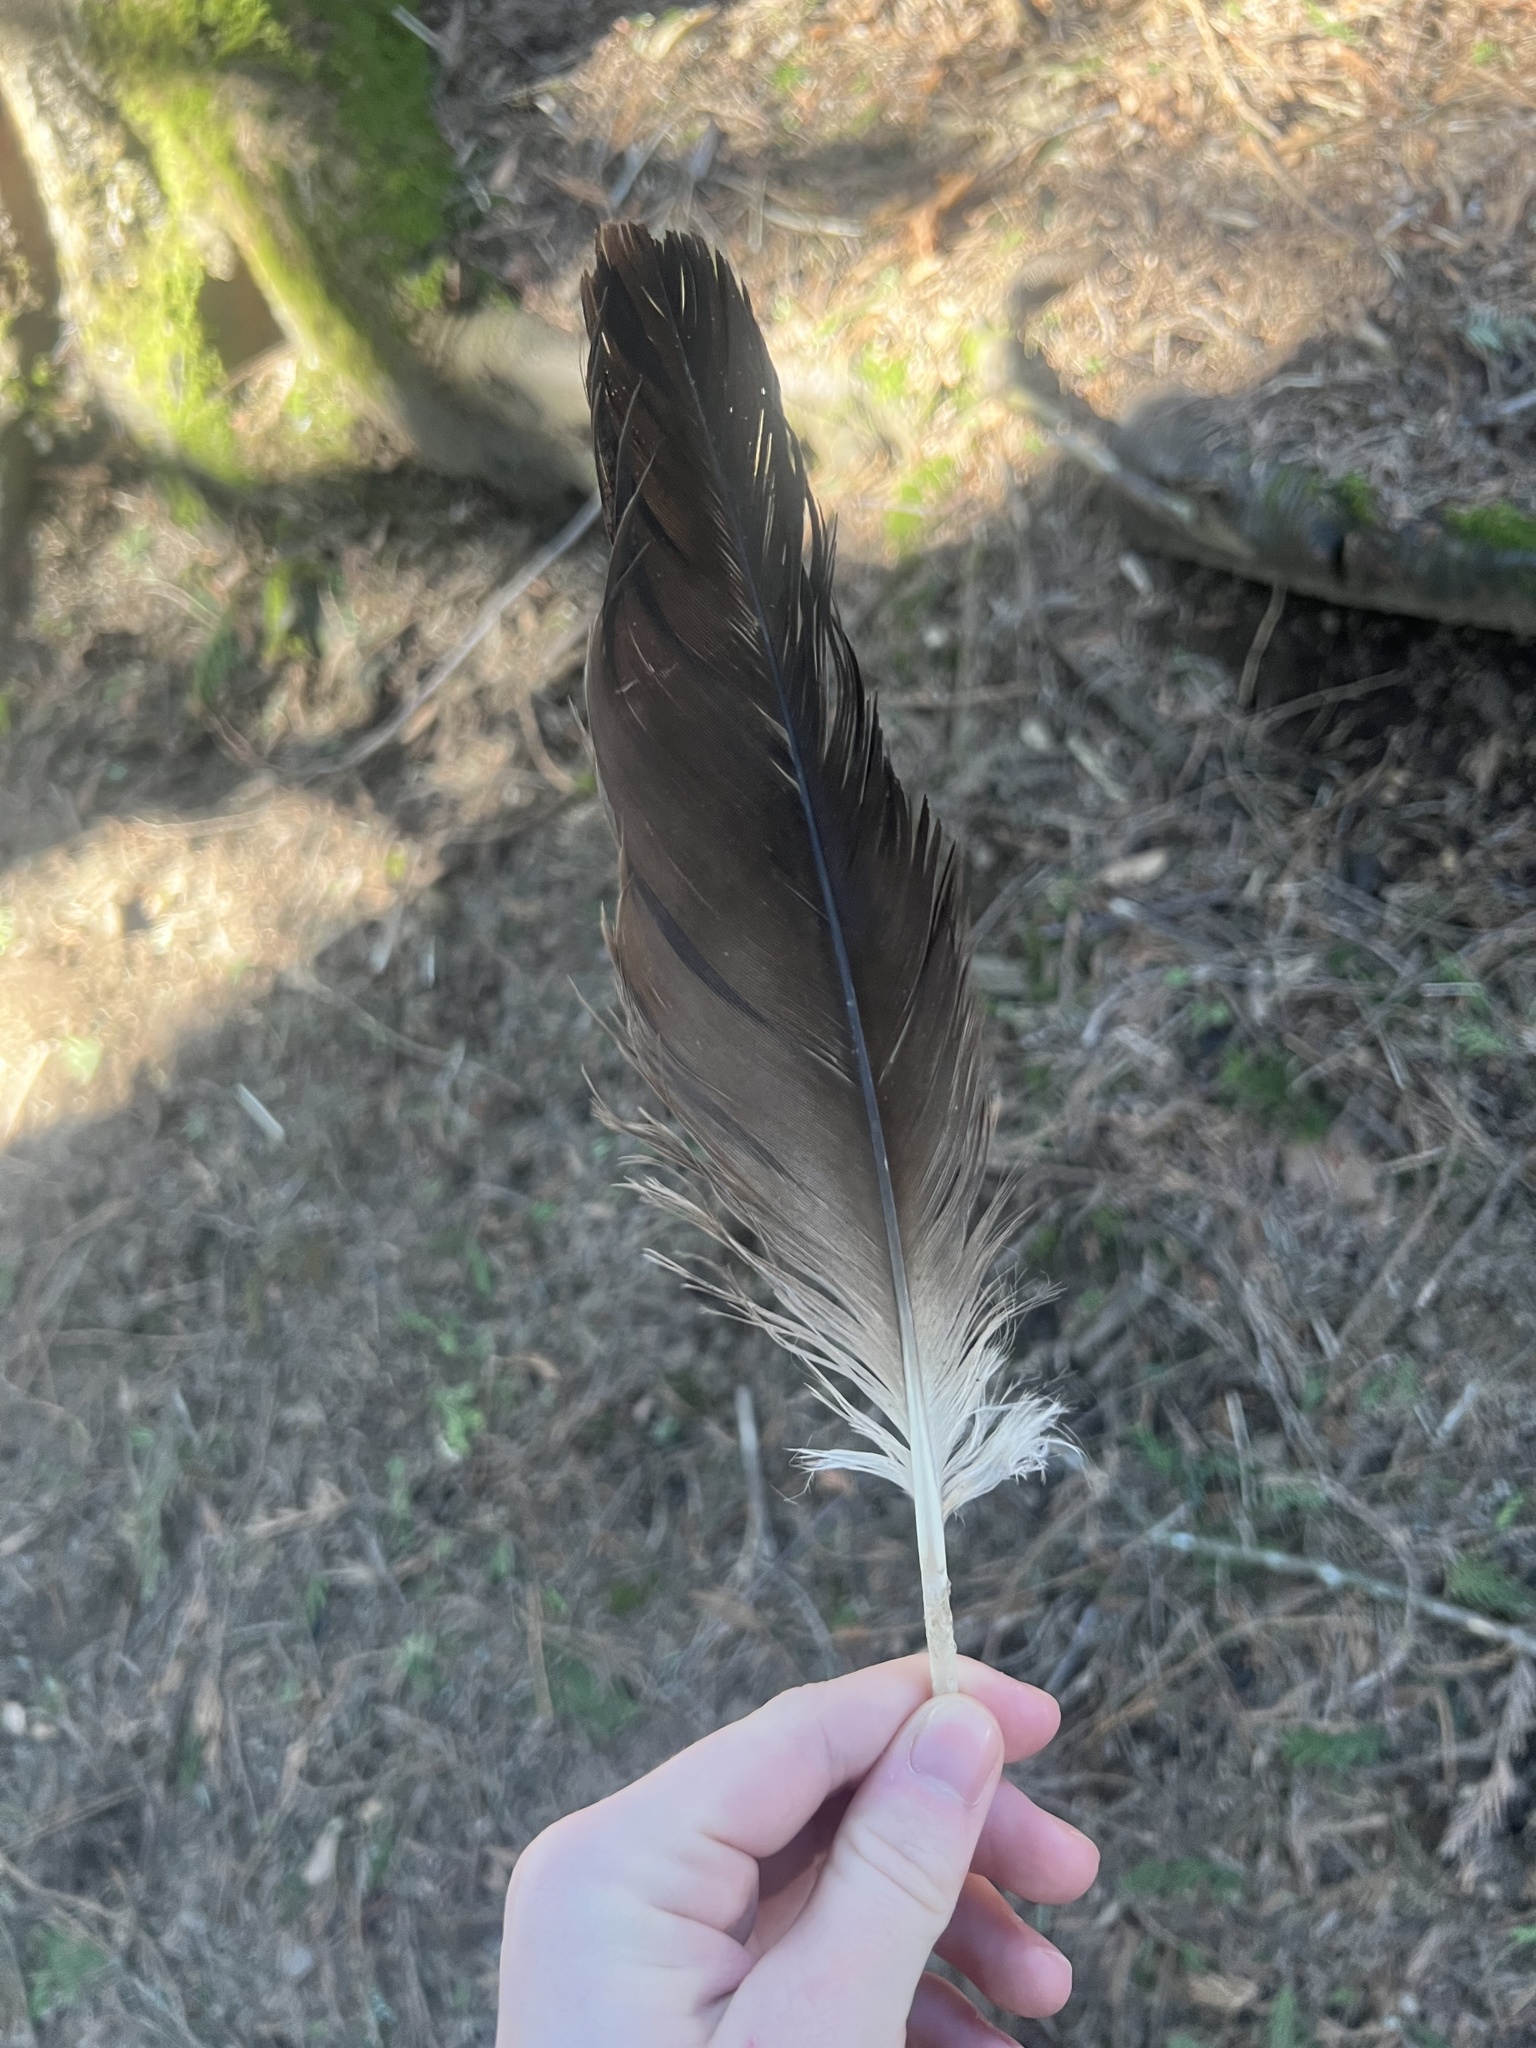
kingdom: Animalia
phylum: Chordata
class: Aves
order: Accipitriformes
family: Accipitridae
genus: Haliaeetus
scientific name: Haliaeetus leucocephalus
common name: Bald eagle
